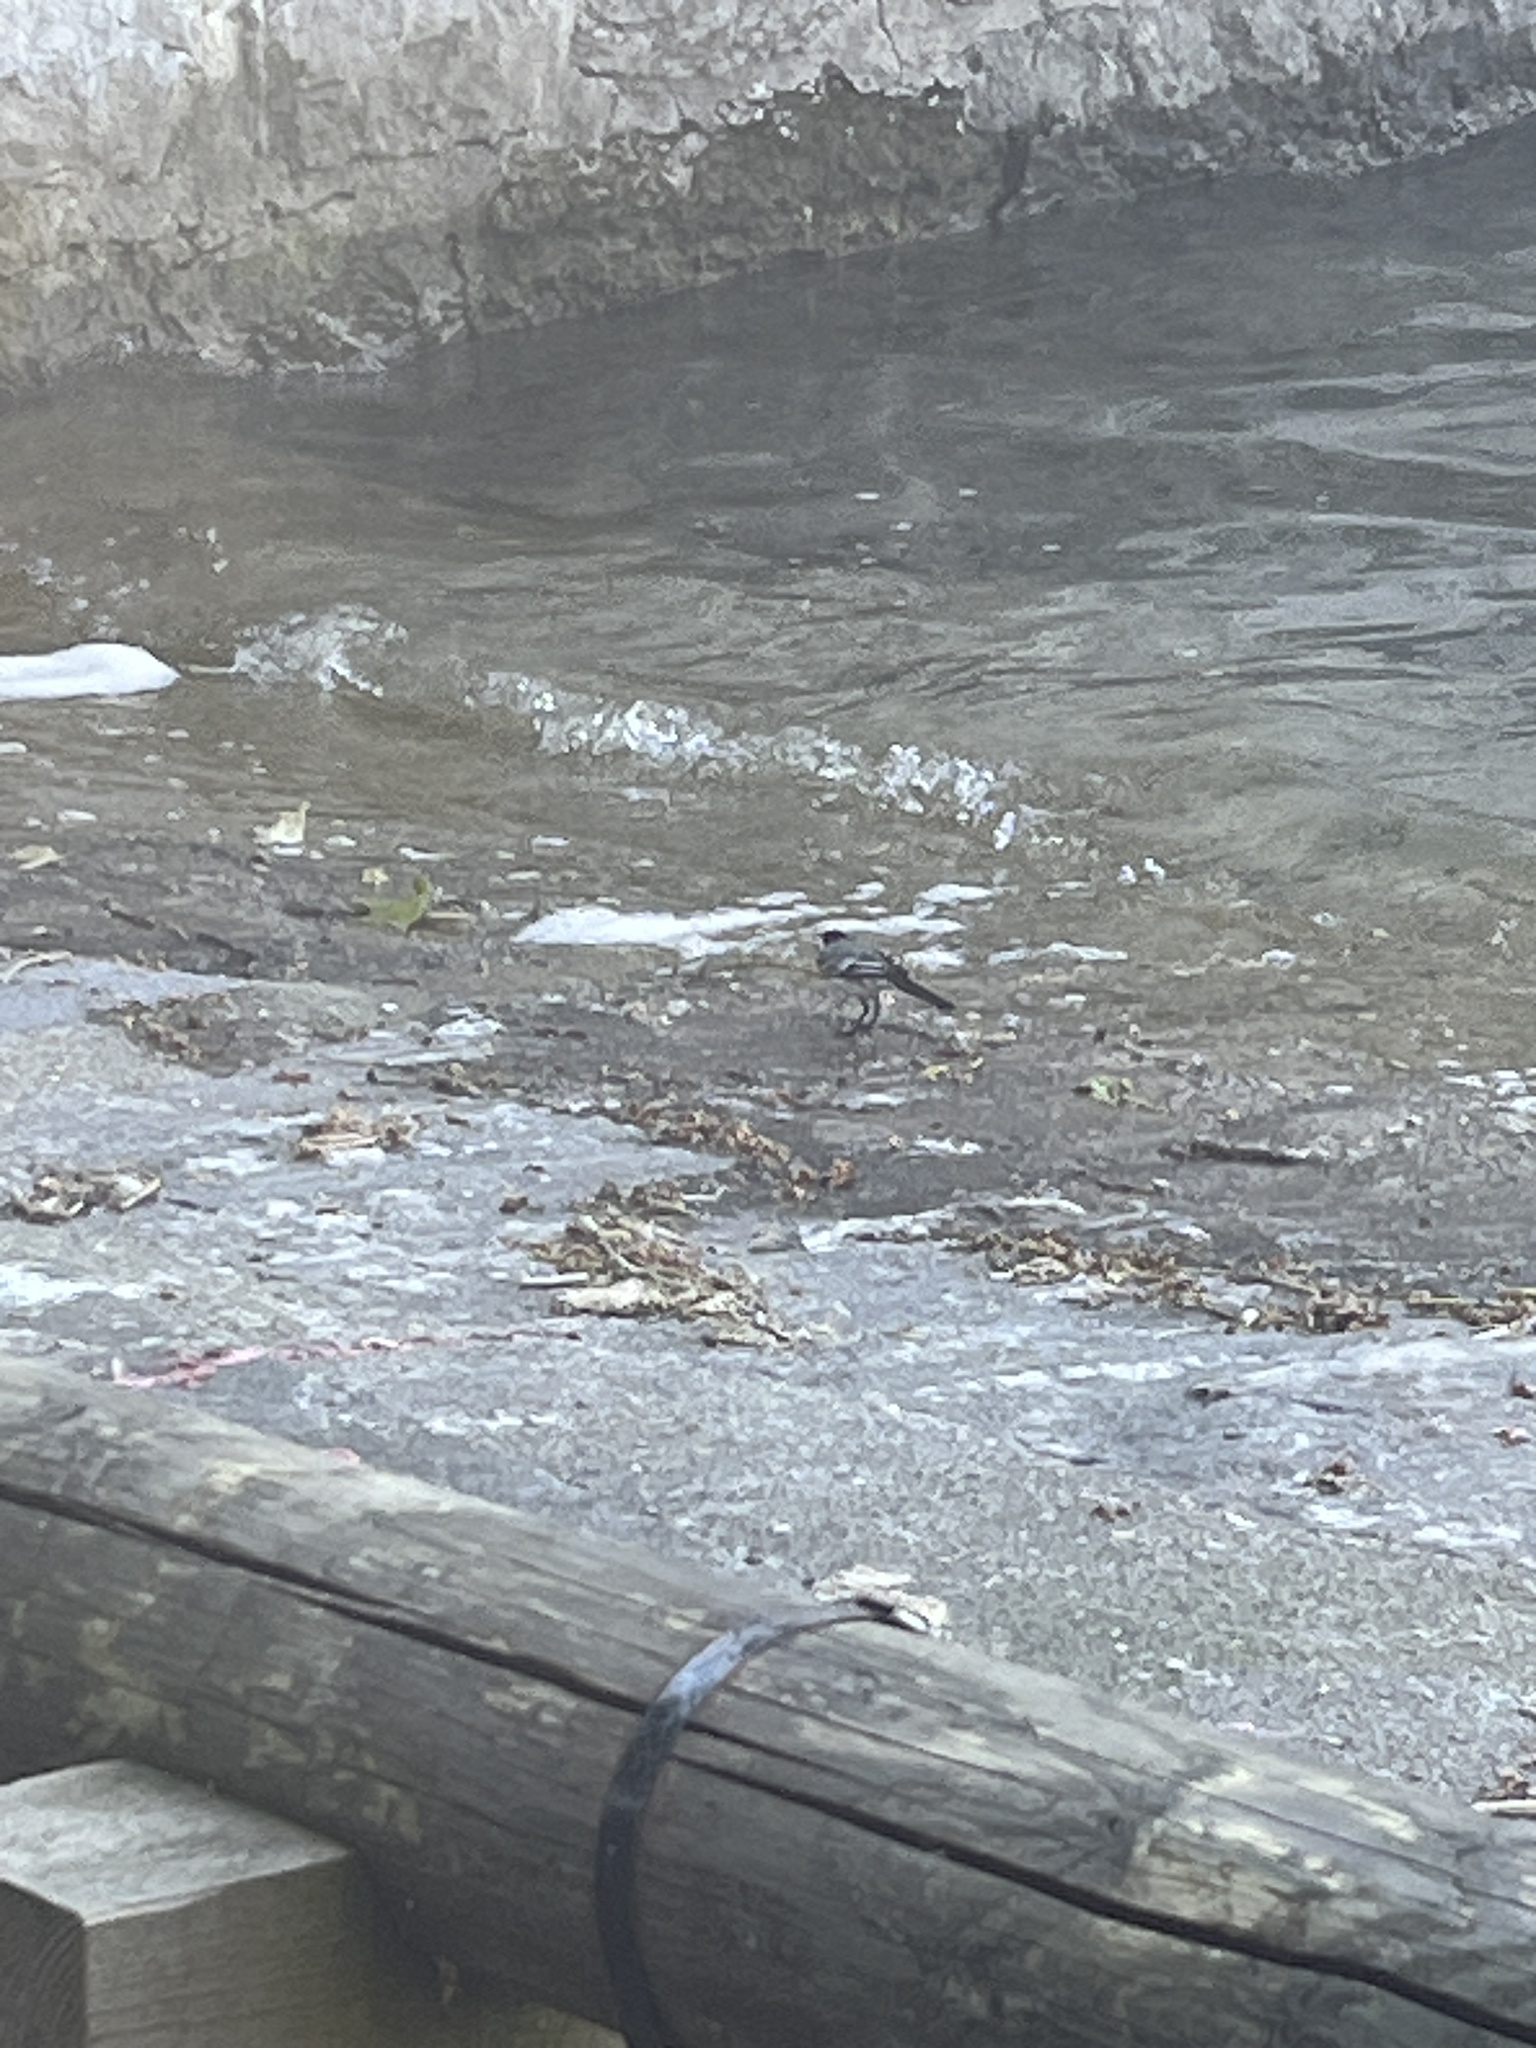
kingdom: Animalia
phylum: Chordata
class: Aves
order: Passeriformes
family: Motacillidae
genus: Motacilla
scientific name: Motacilla alba
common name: White wagtail
